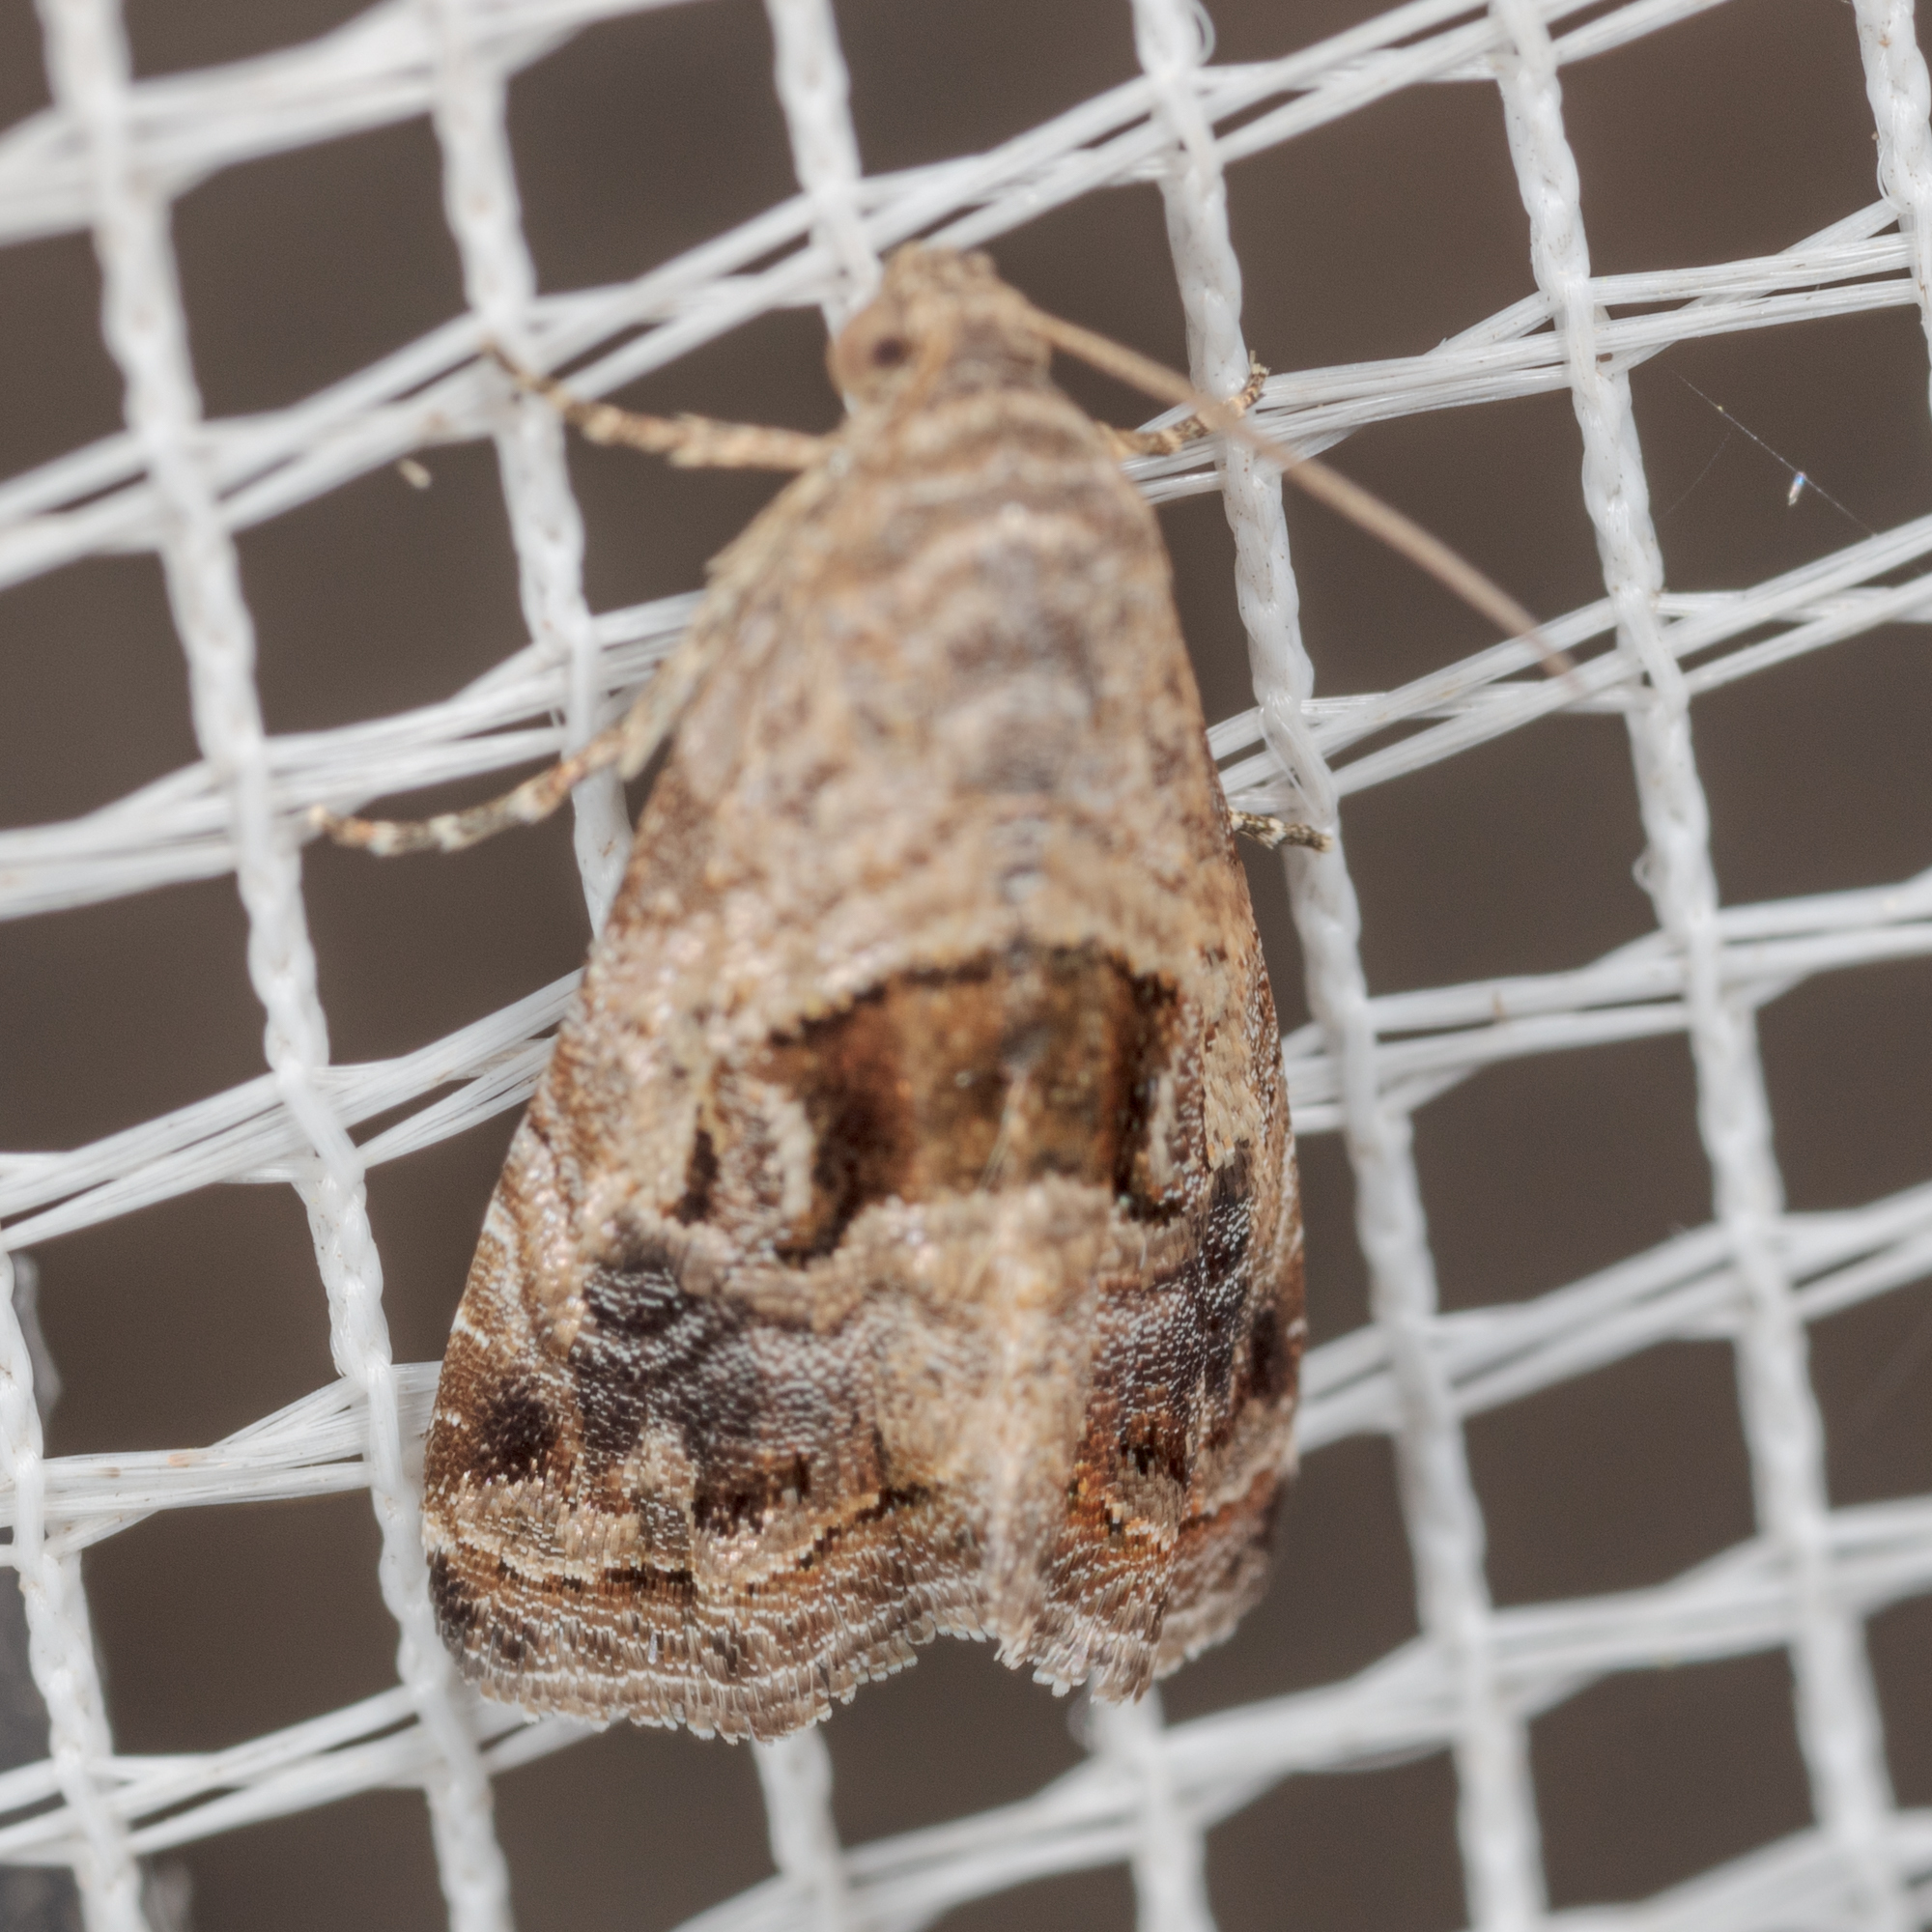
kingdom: Animalia
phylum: Arthropoda
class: Insecta
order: Lepidoptera
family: Noctuidae
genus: Tripudia
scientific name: Tripudia quadrifera
